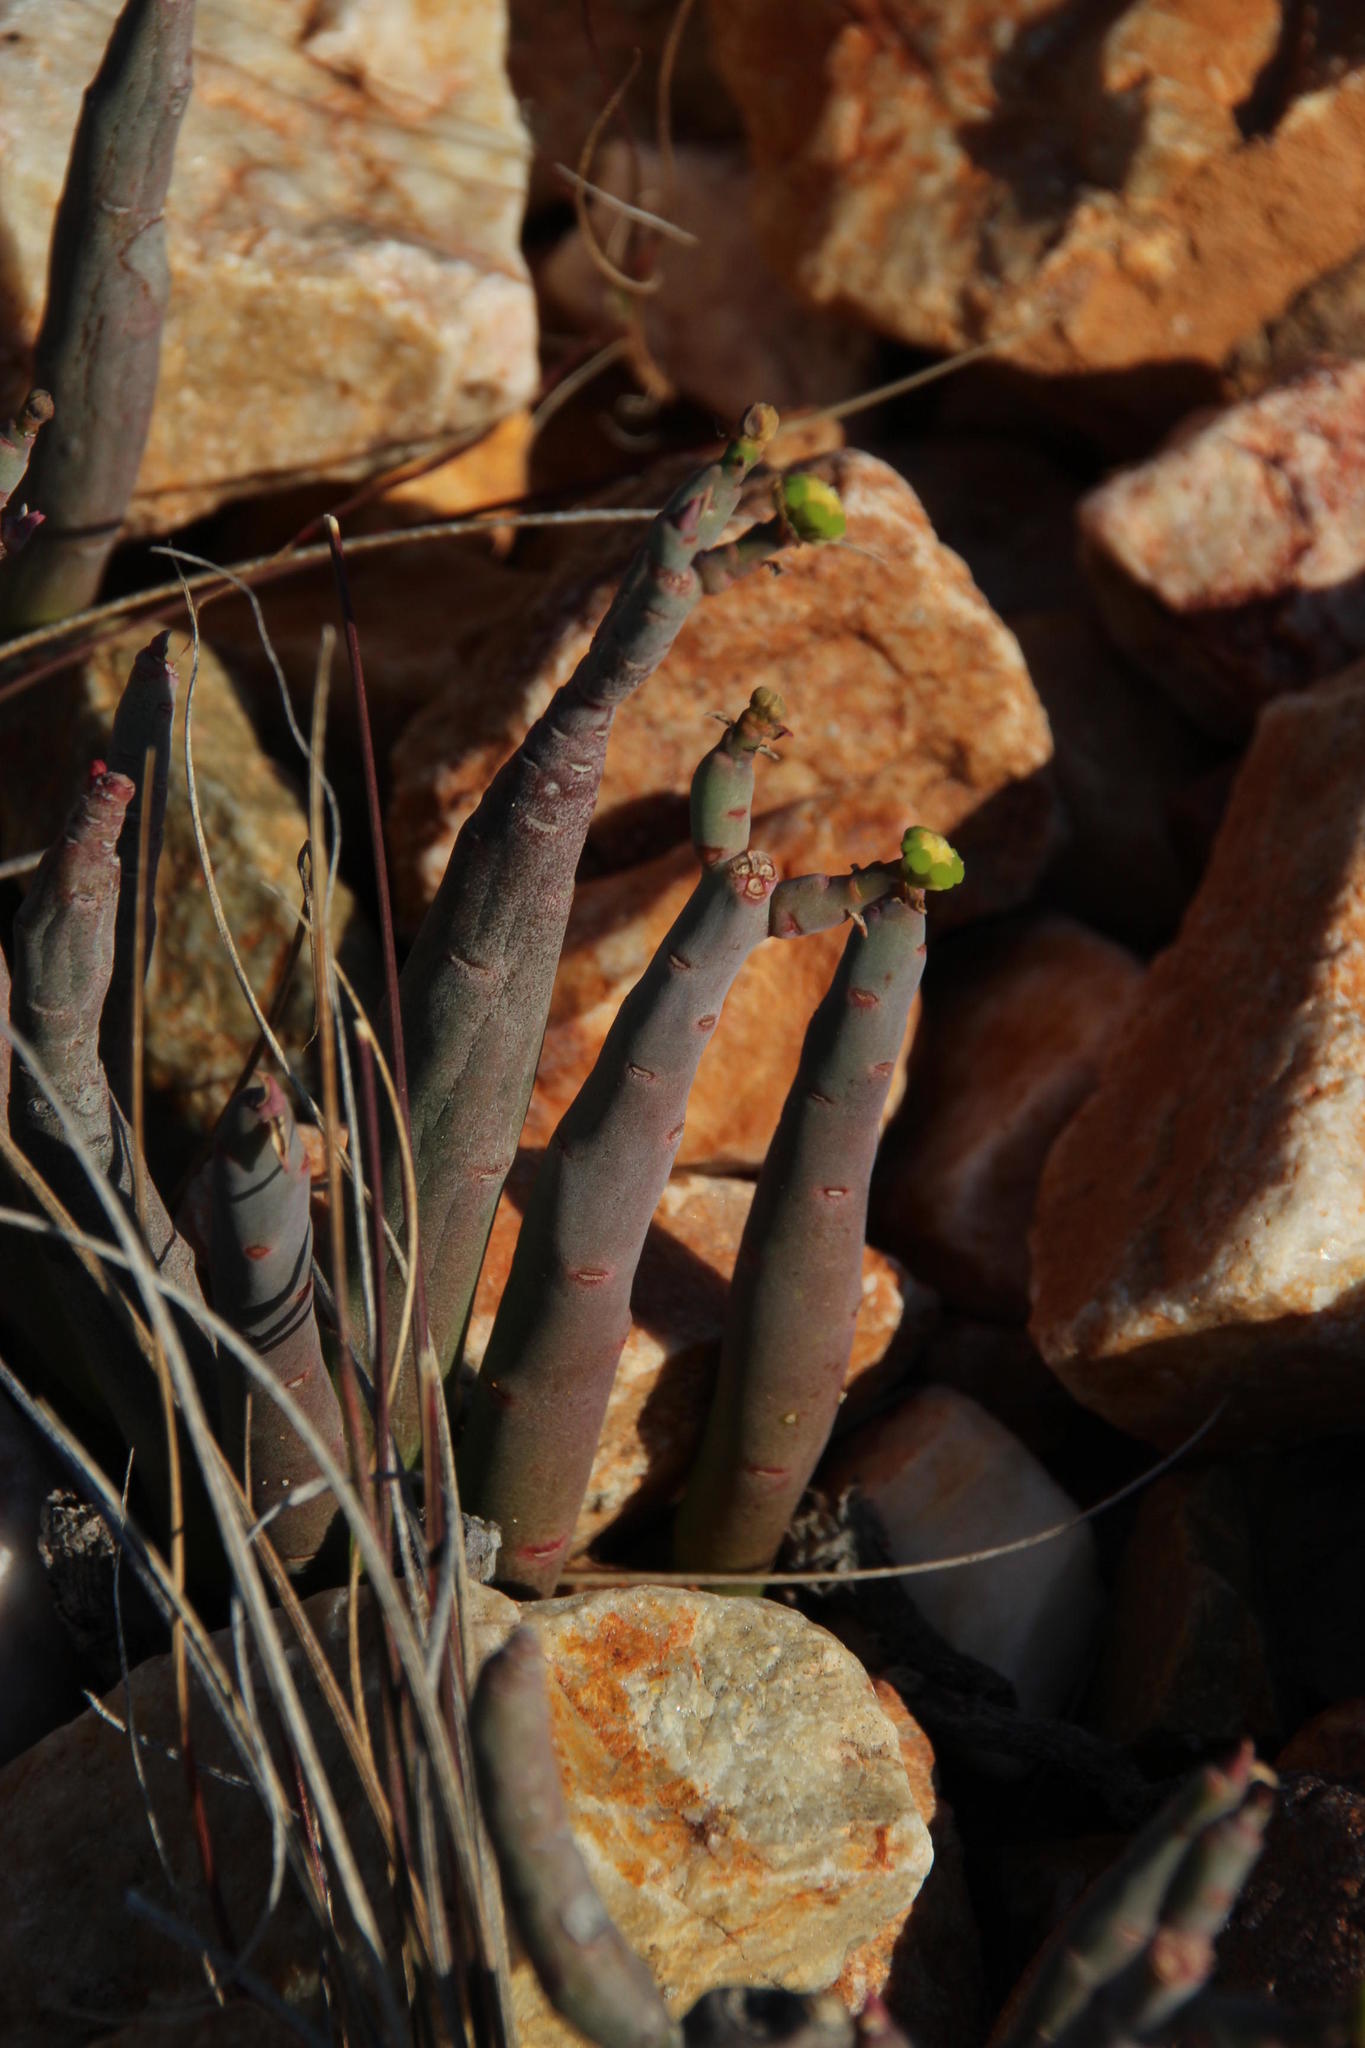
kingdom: Plantae
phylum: Tracheophyta
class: Magnoliopsida
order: Malpighiales
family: Euphorbiaceae
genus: Euphorbia
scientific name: Euphorbia stolonifera
